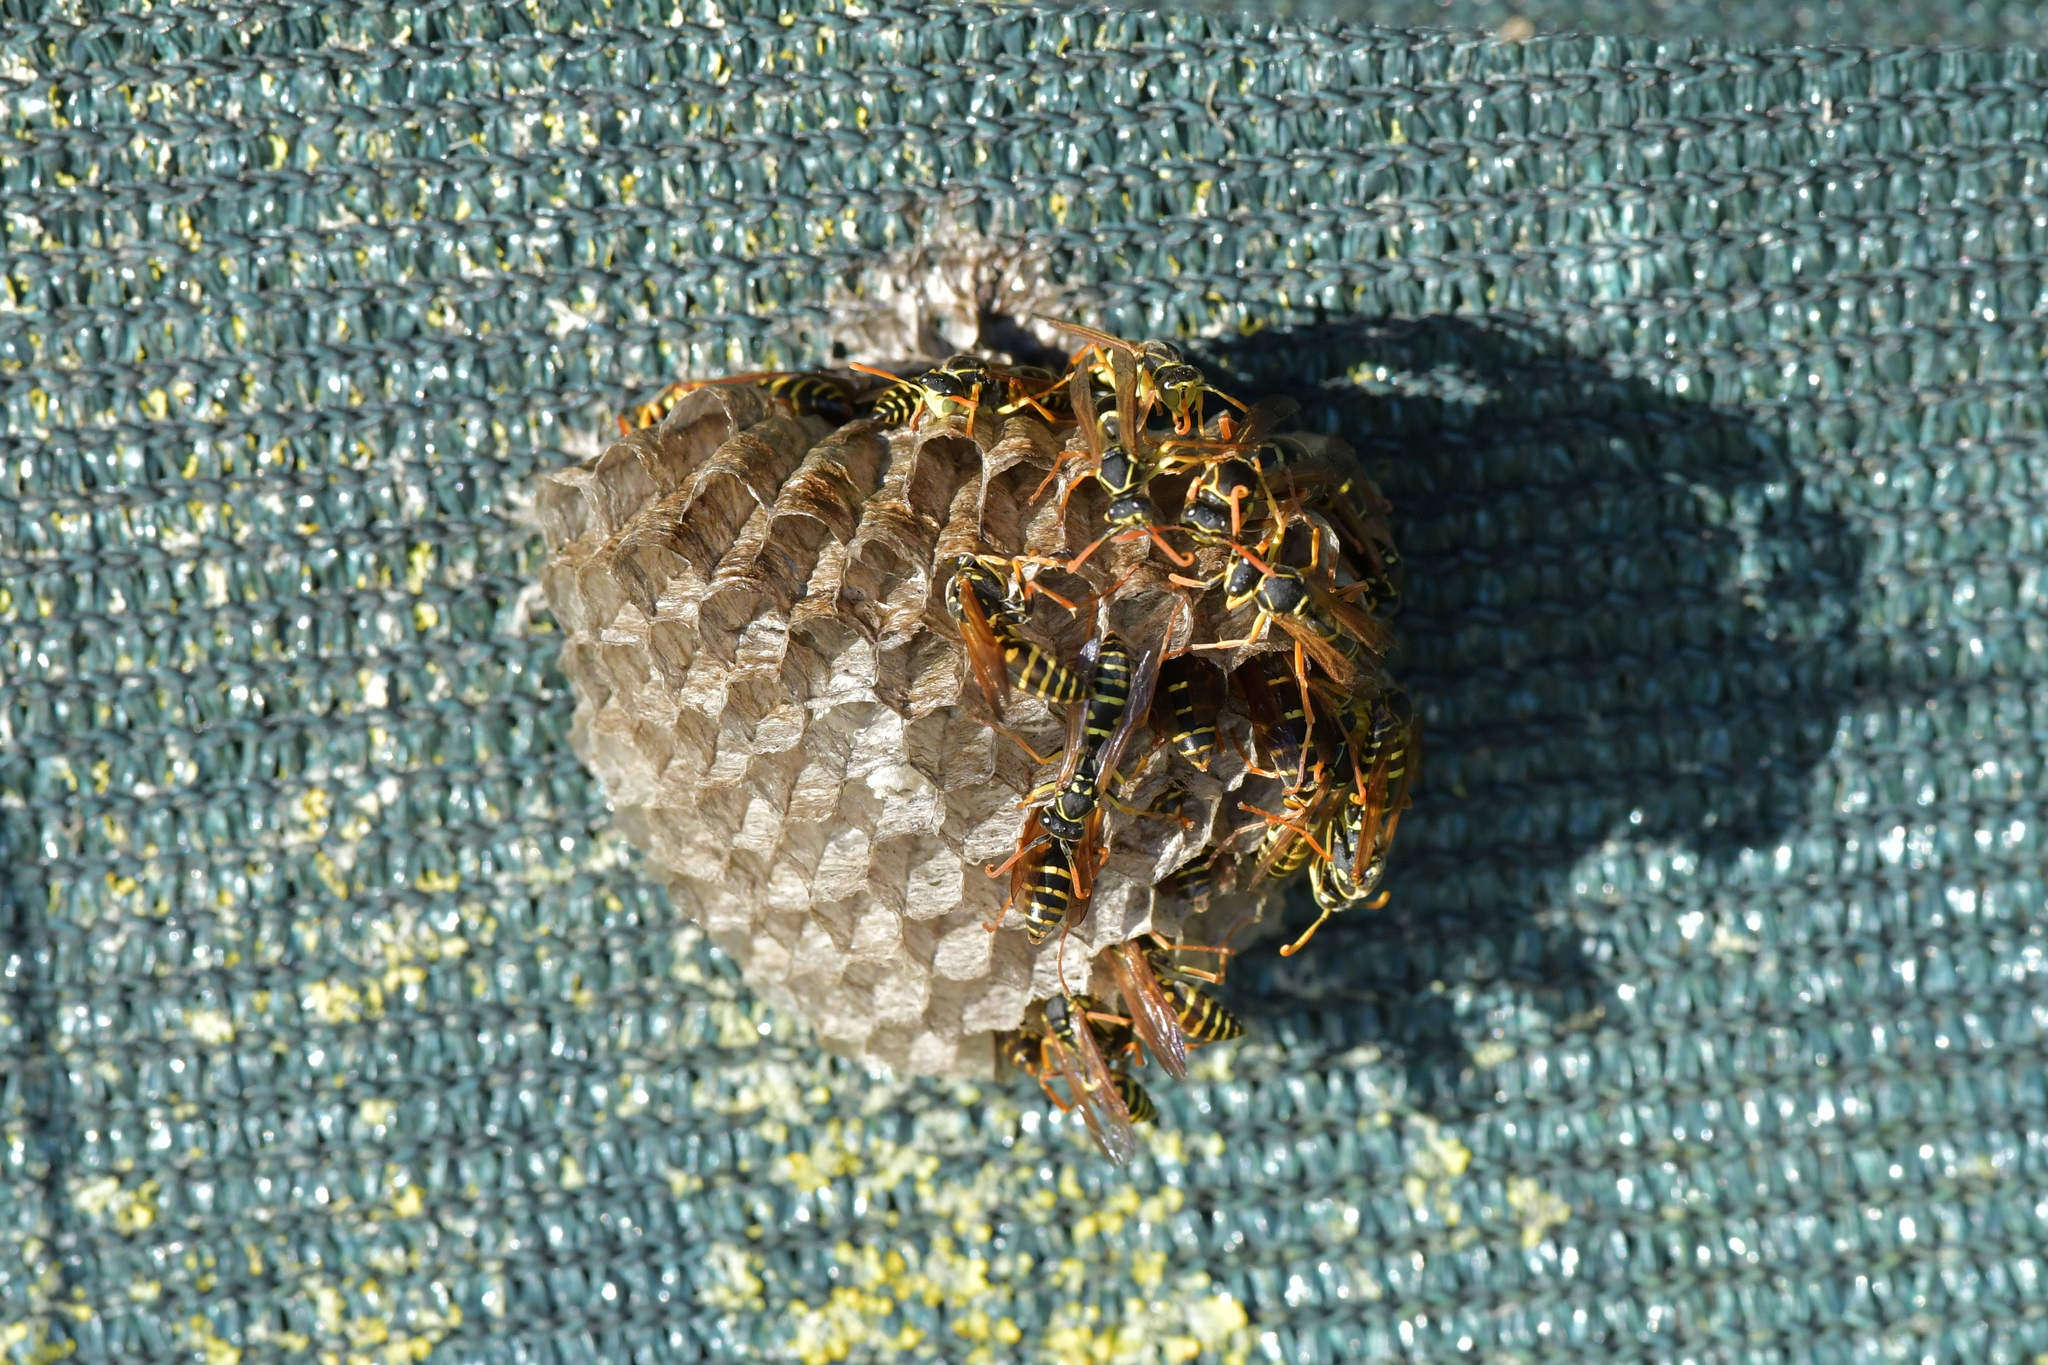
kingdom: Animalia
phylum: Arthropoda
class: Insecta
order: Hymenoptera
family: Eumenidae
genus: Polistes
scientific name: Polistes chinensis
